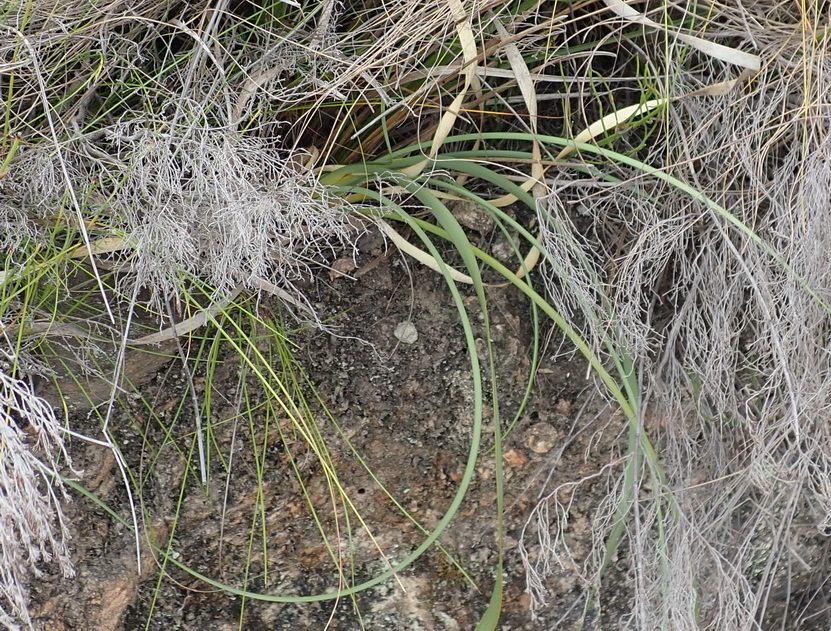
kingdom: Plantae
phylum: Tracheophyta
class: Liliopsida
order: Asparagales
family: Iridaceae
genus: Bobartia
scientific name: Bobartia paniculata
